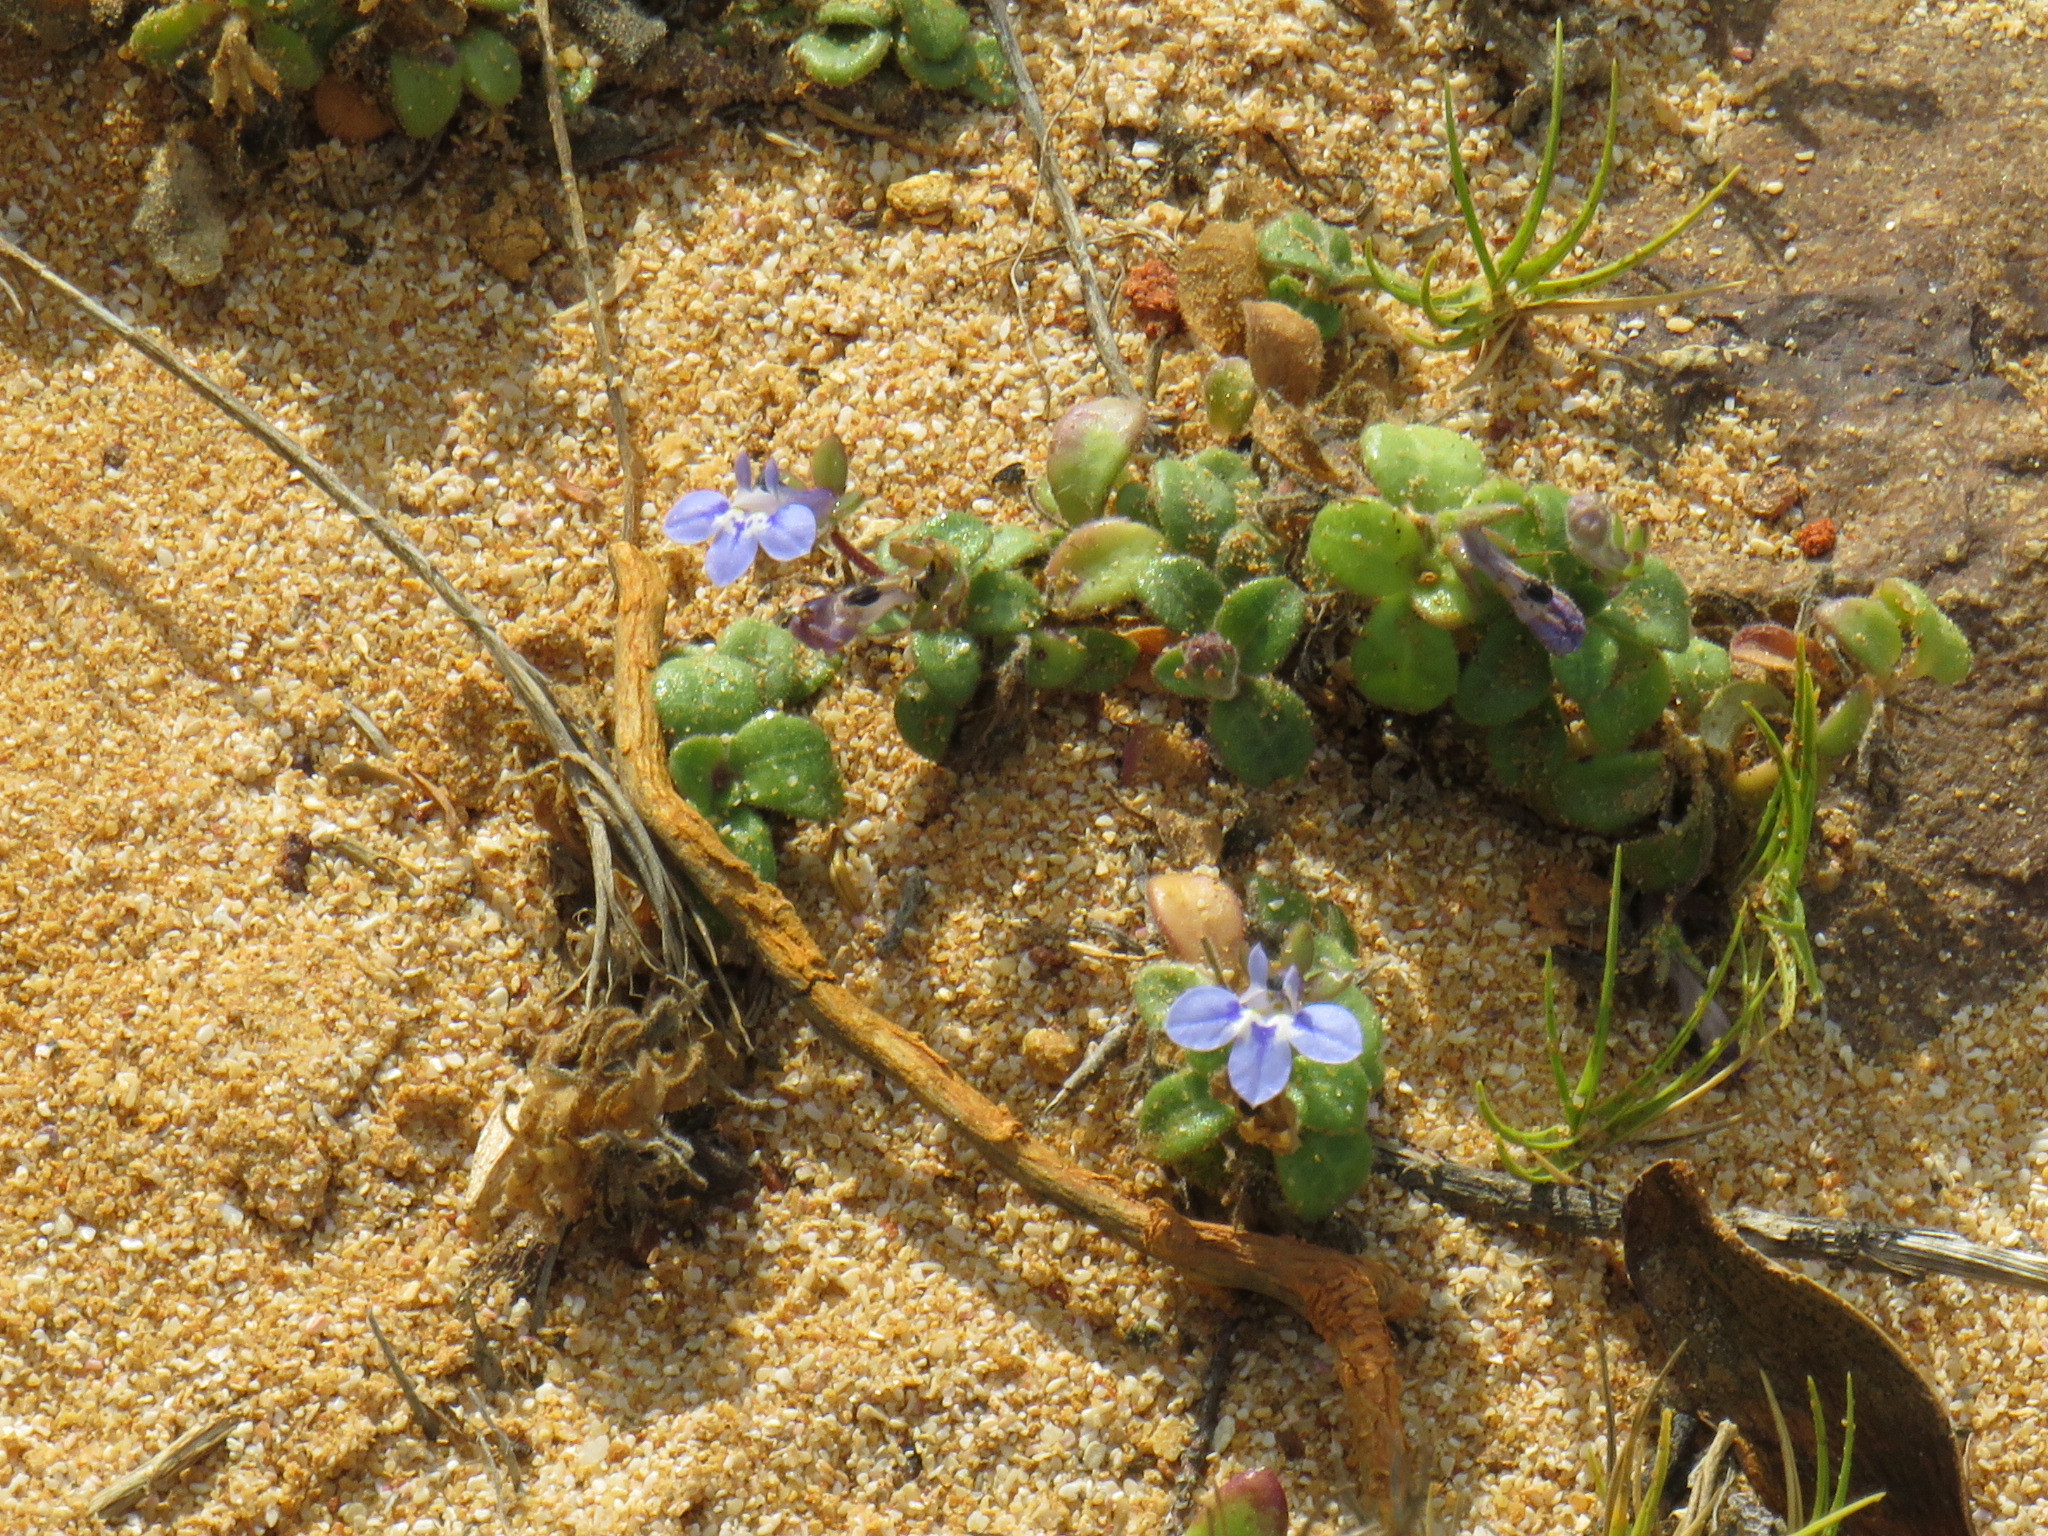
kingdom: Plantae
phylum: Tracheophyta
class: Magnoliopsida
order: Asterales
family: Campanulaceae
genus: Lobelia
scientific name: Lobelia boivinii
